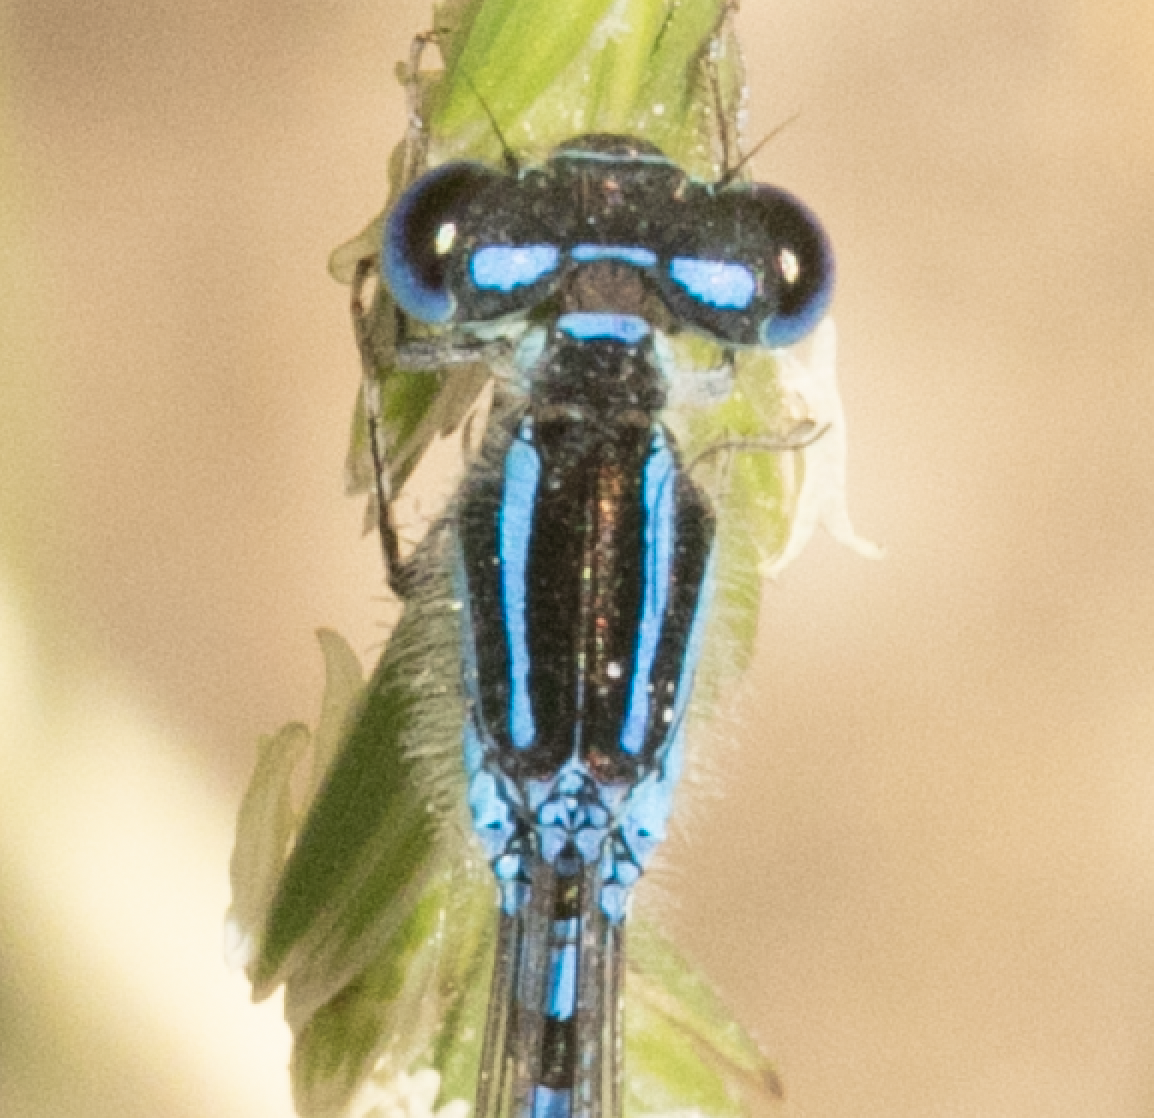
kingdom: Animalia
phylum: Arthropoda
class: Insecta
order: Odonata
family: Coenagrionidae
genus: Coenagrion
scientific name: Coenagrion scitulum
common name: Dainty bluet
